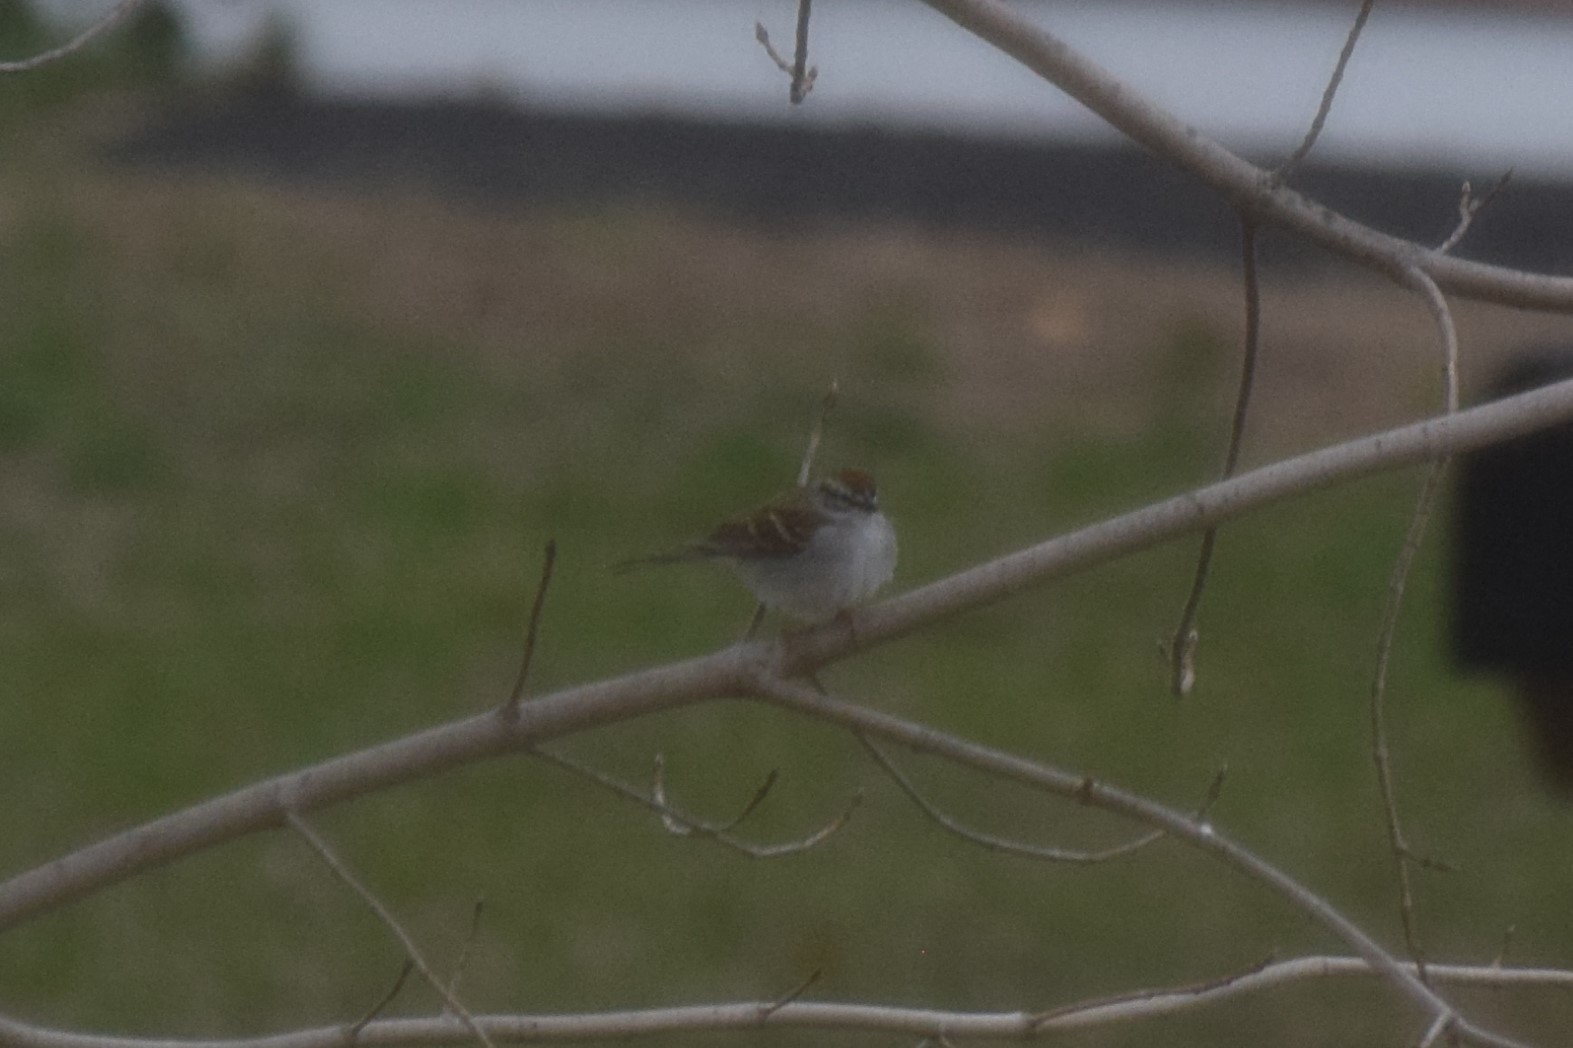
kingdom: Animalia
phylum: Chordata
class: Aves
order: Passeriformes
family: Passerellidae
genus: Spizella
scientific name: Spizella passerina
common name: Chipping sparrow
